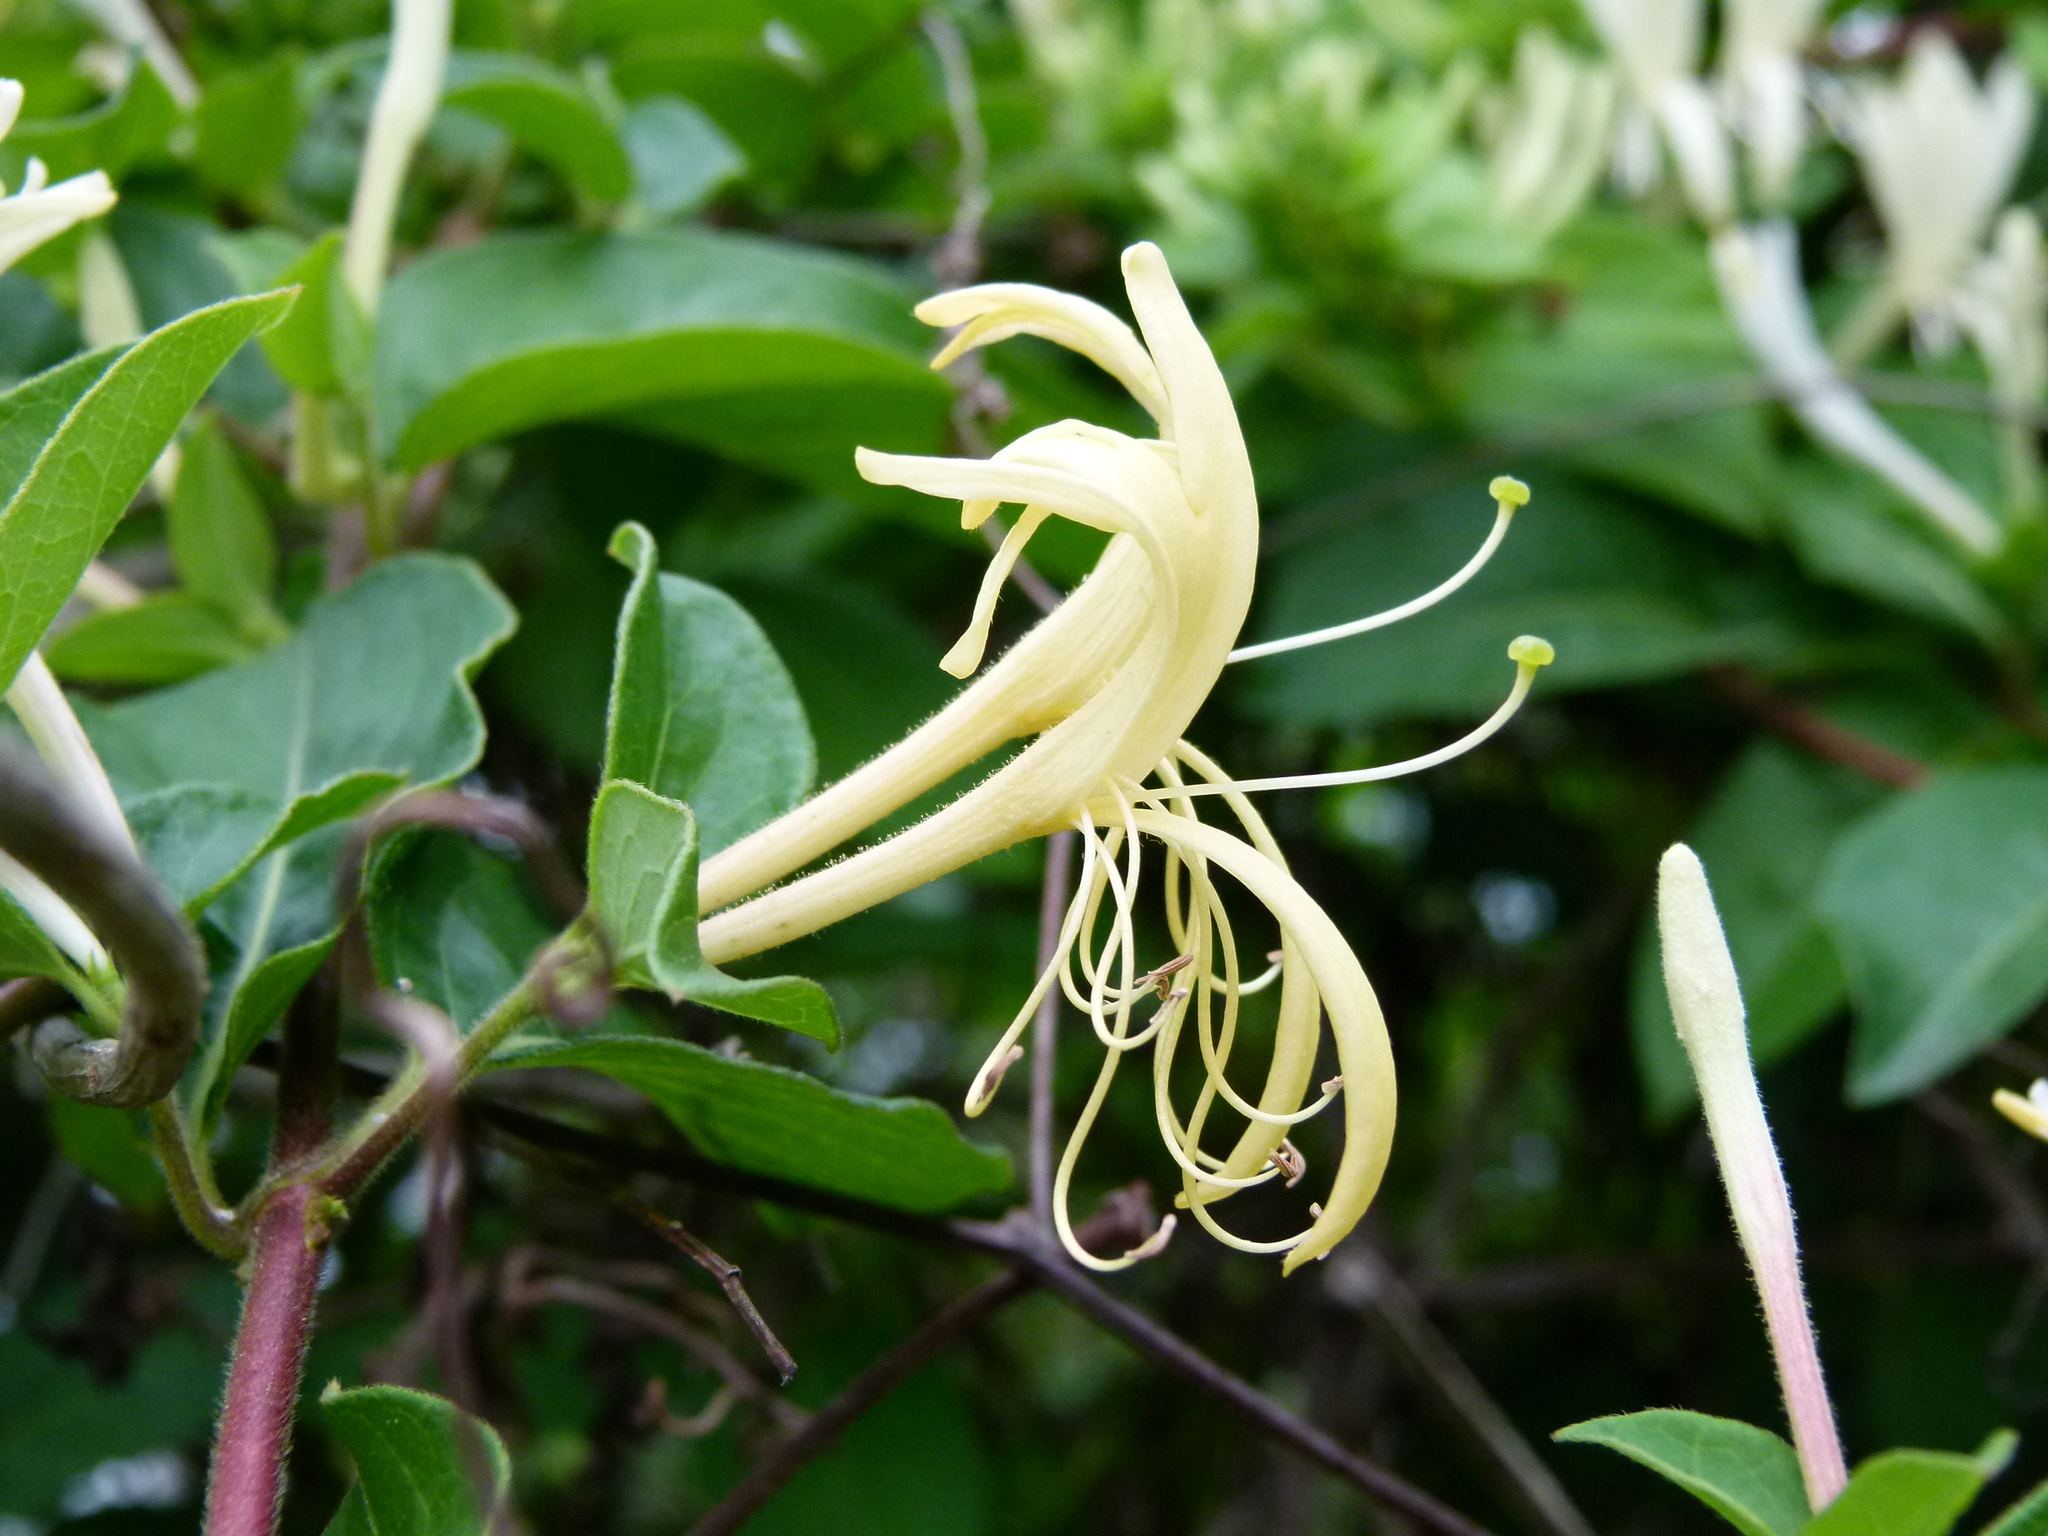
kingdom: Plantae
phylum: Tracheophyta
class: Magnoliopsida
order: Dipsacales
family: Caprifoliaceae
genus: Lonicera
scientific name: Lonicera japonica
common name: Japanese honeysuckle
